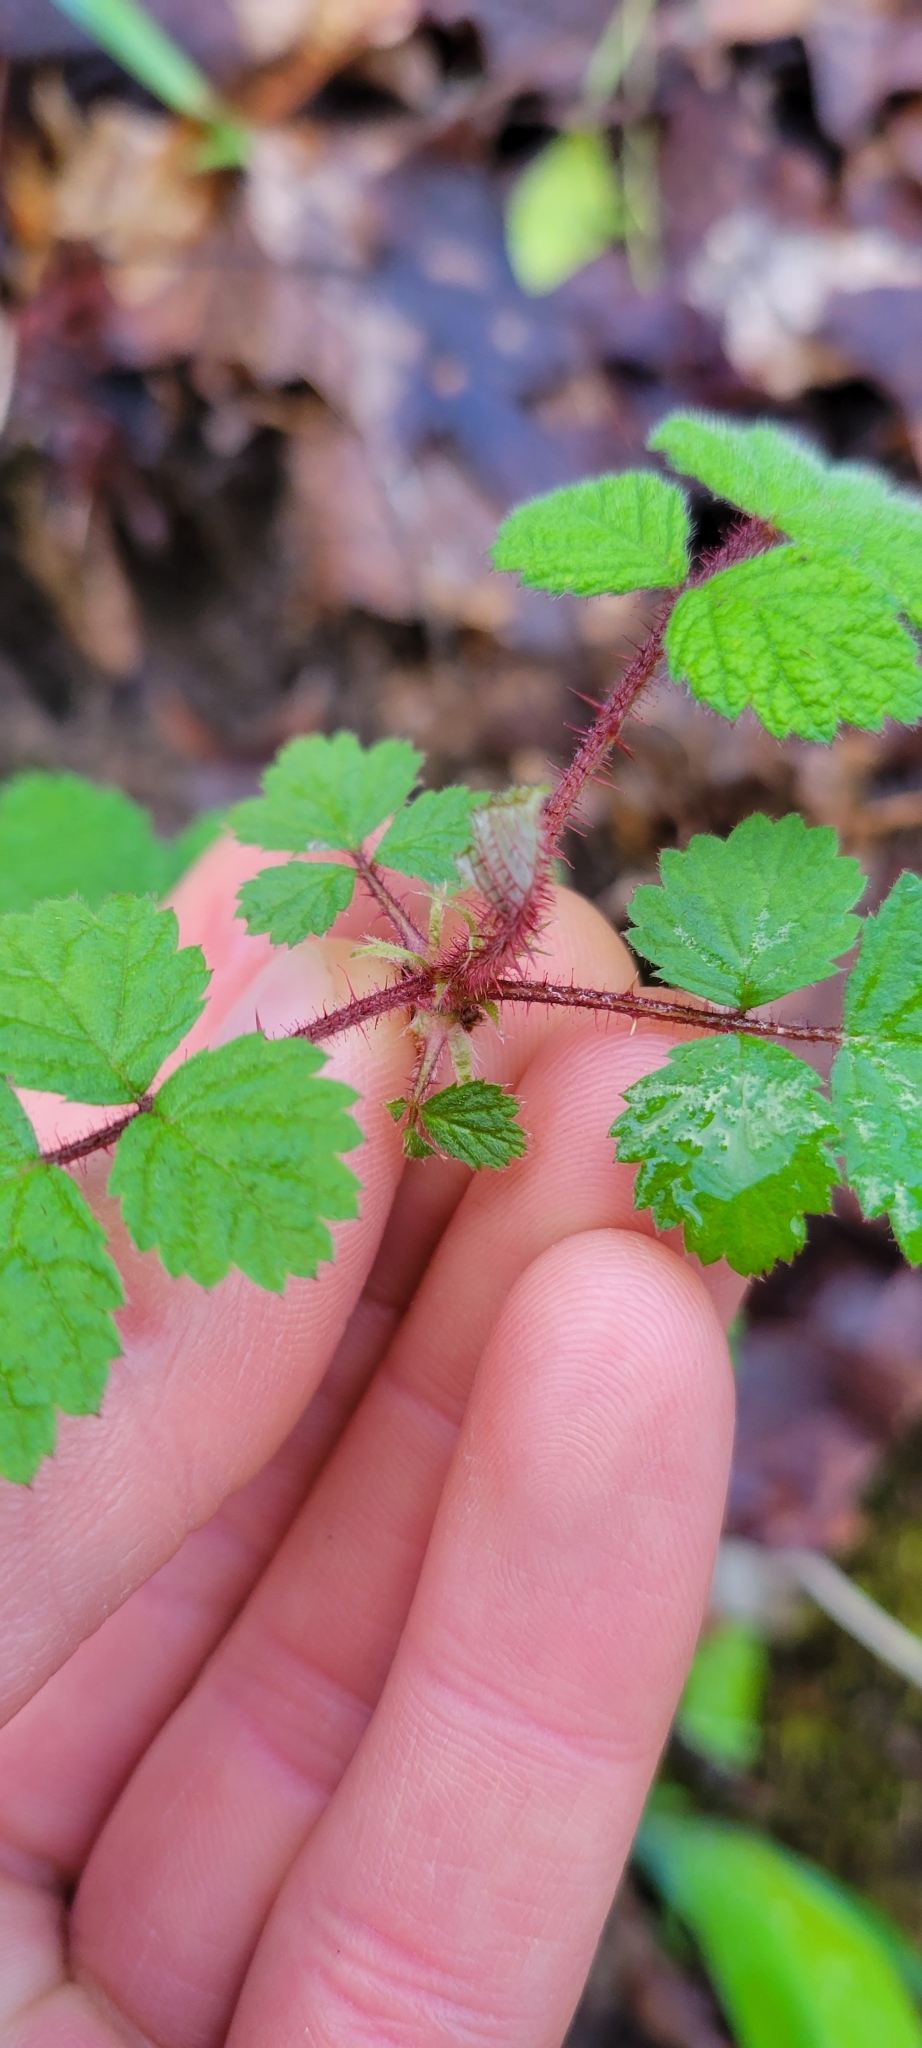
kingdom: Plantae
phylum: Tracheophyta
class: Magnoliopsida
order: Rosales
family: Rosaceae
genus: Rubus
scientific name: Rubus phoenicolasius
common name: Japanese wineberry
